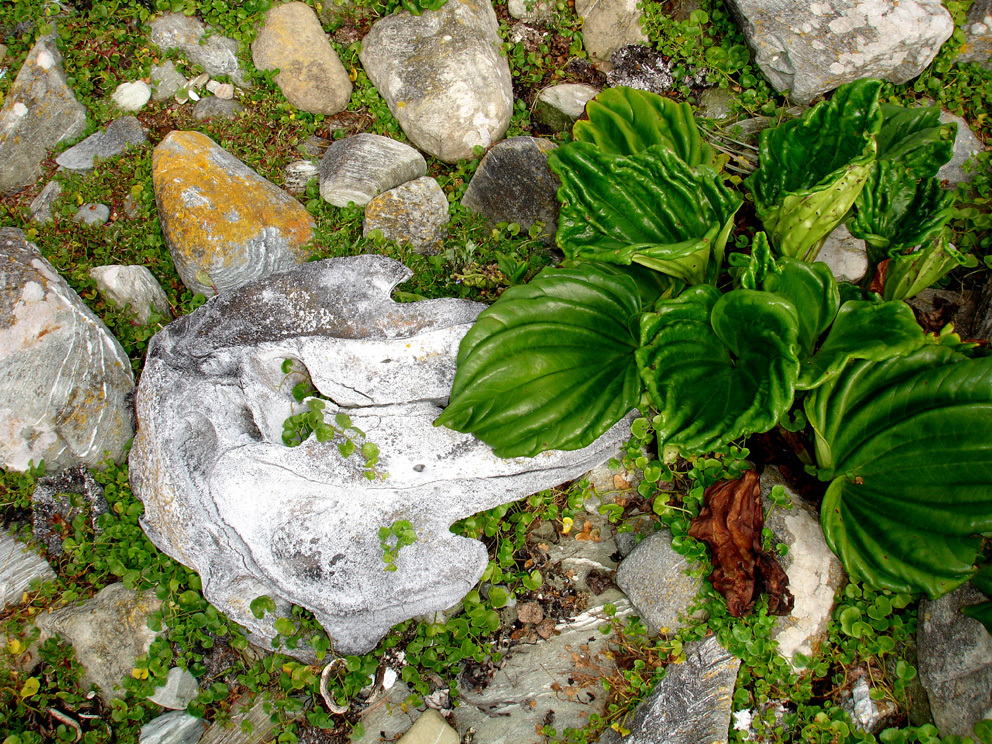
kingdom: Plantae
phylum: Tracheophyta
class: Magnoliopsida
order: Boraginales
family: Boraginaceae
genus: Myosotidium
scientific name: Myosotidium hortensia
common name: Giant forget-me-not
